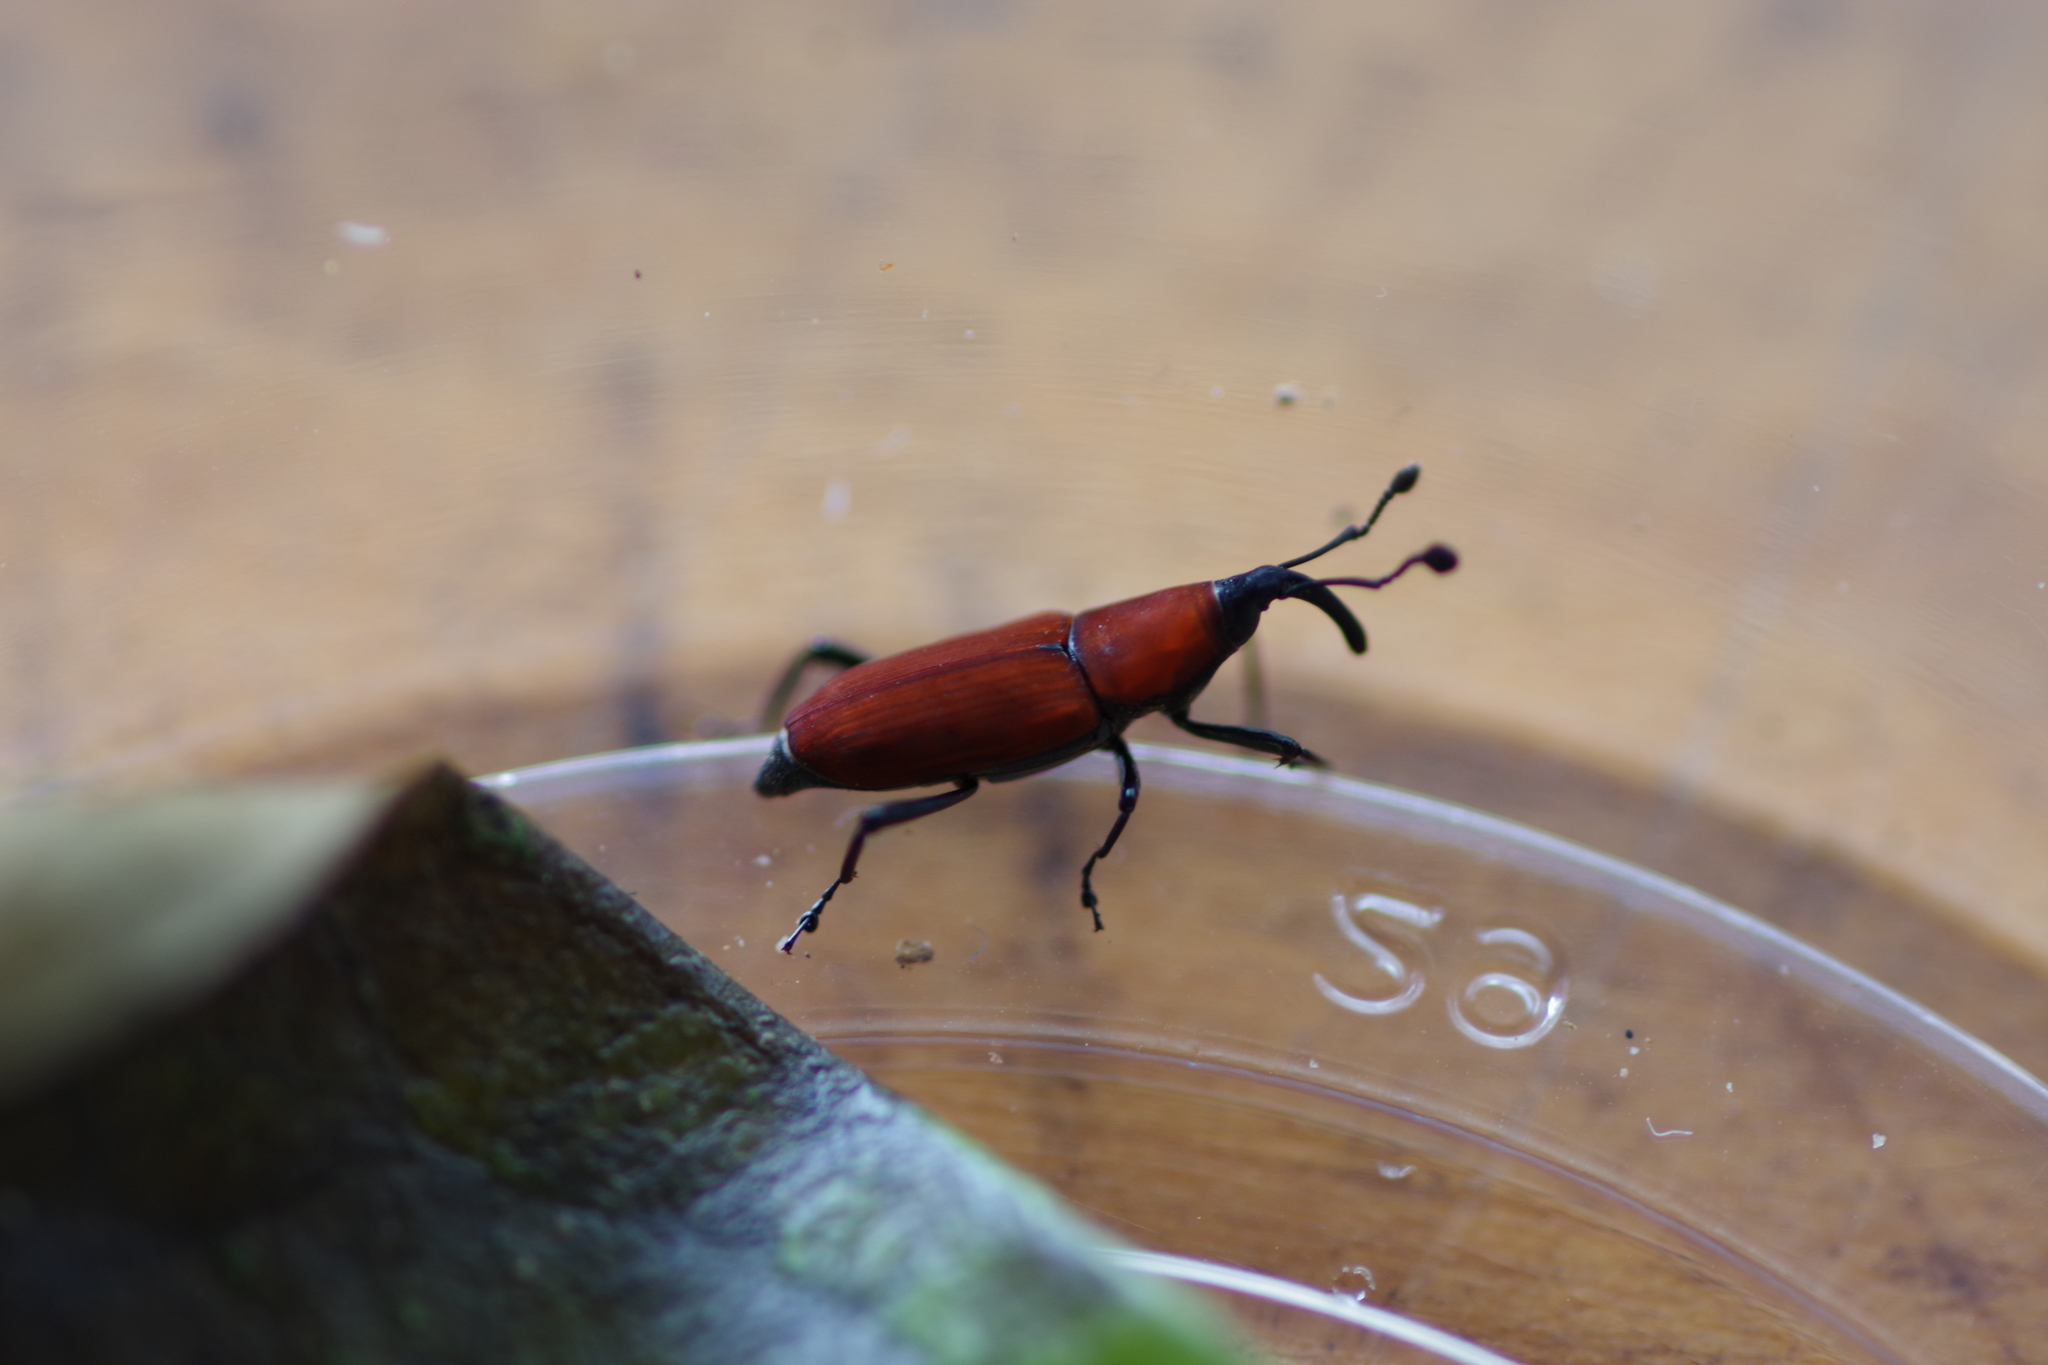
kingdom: Animalia
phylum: Arthropoda
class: Insecta
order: Coleoptera
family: Dryophthoridae
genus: Rhodobaenus
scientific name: Rhodobaenus sanguineus
